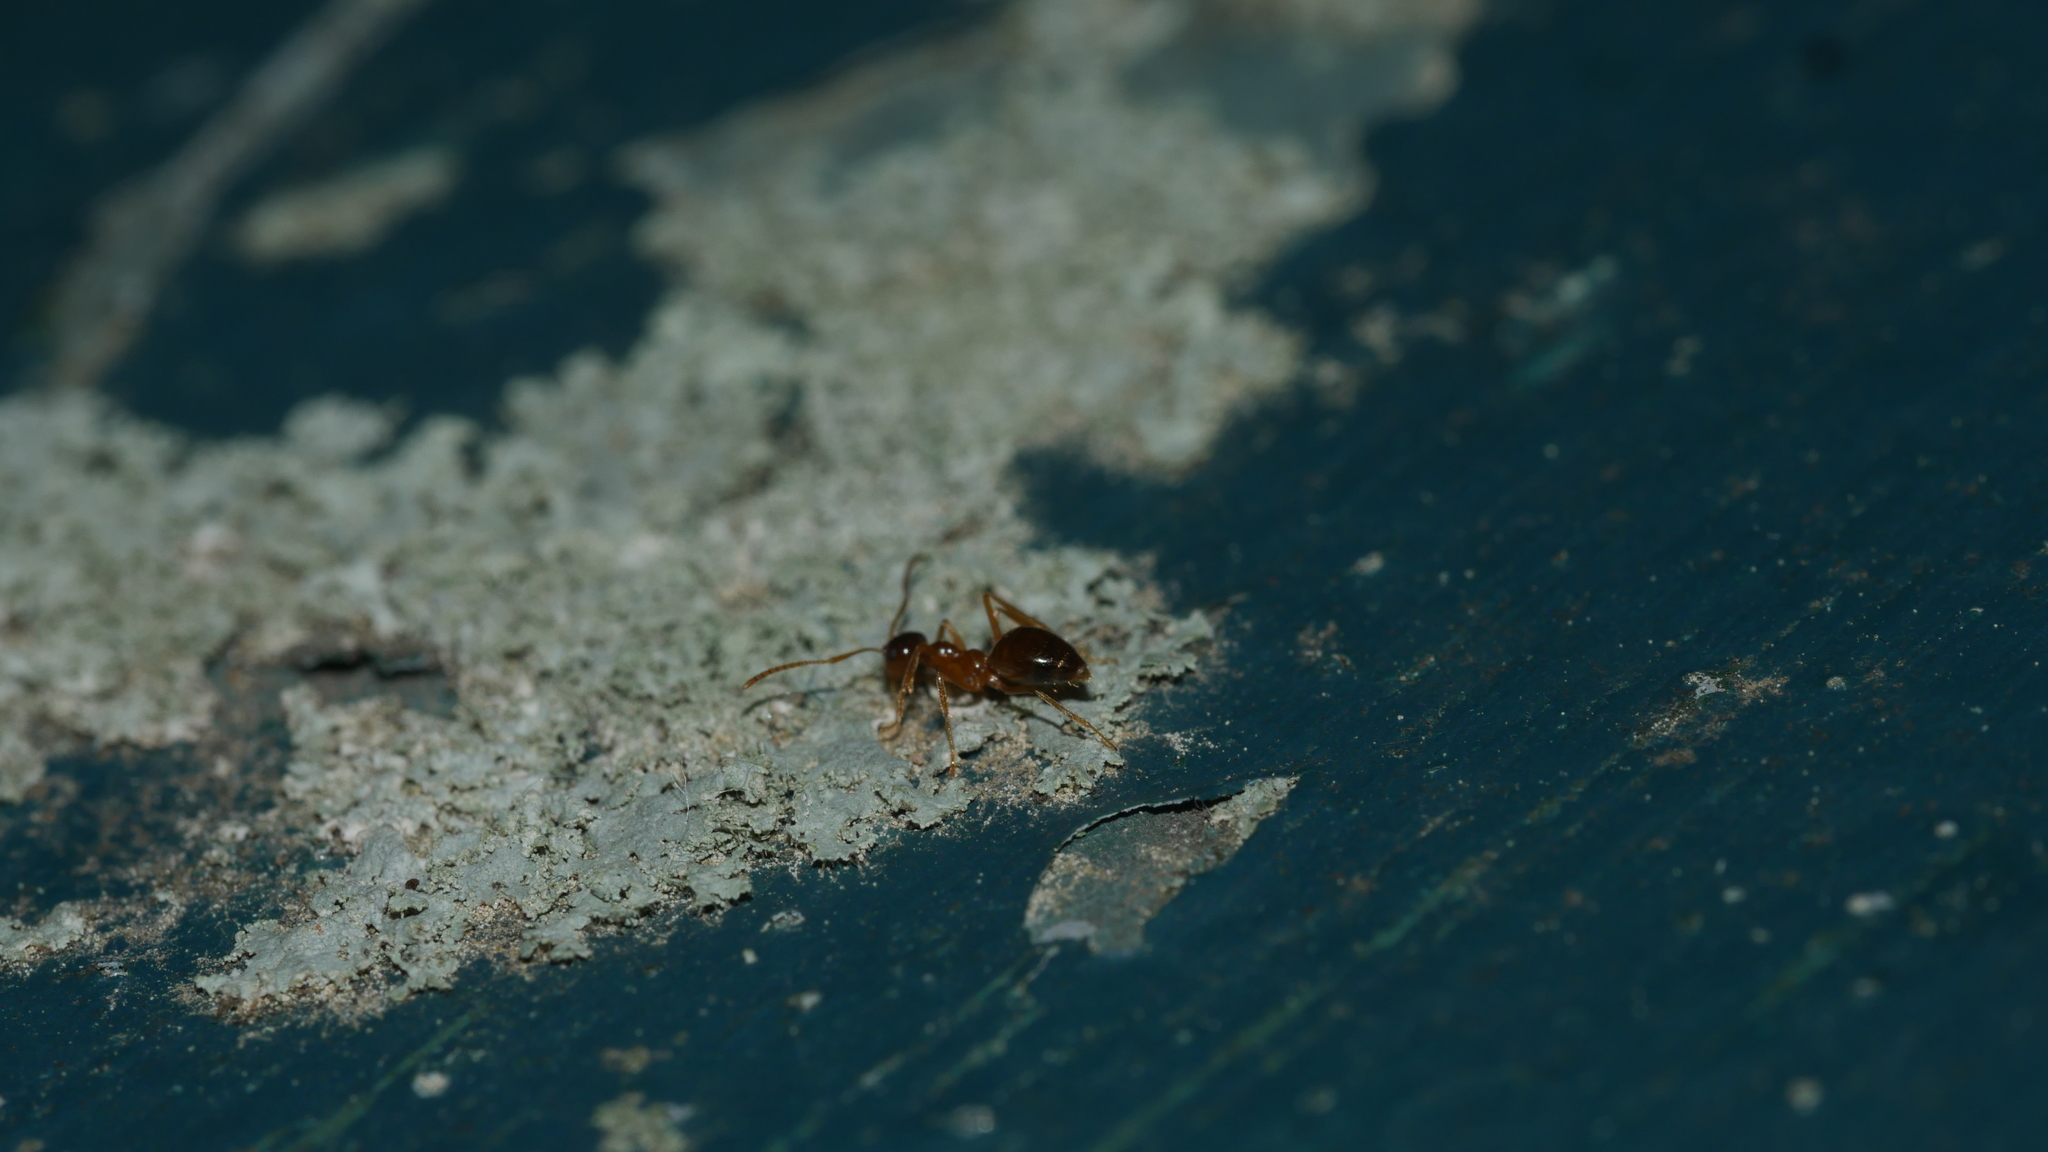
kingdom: Animalia
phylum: Arthropoda
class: Insecta
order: Hymenoptera
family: Formicidae
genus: Prenolepis
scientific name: Prenolepis imparis
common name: Small honey ant
